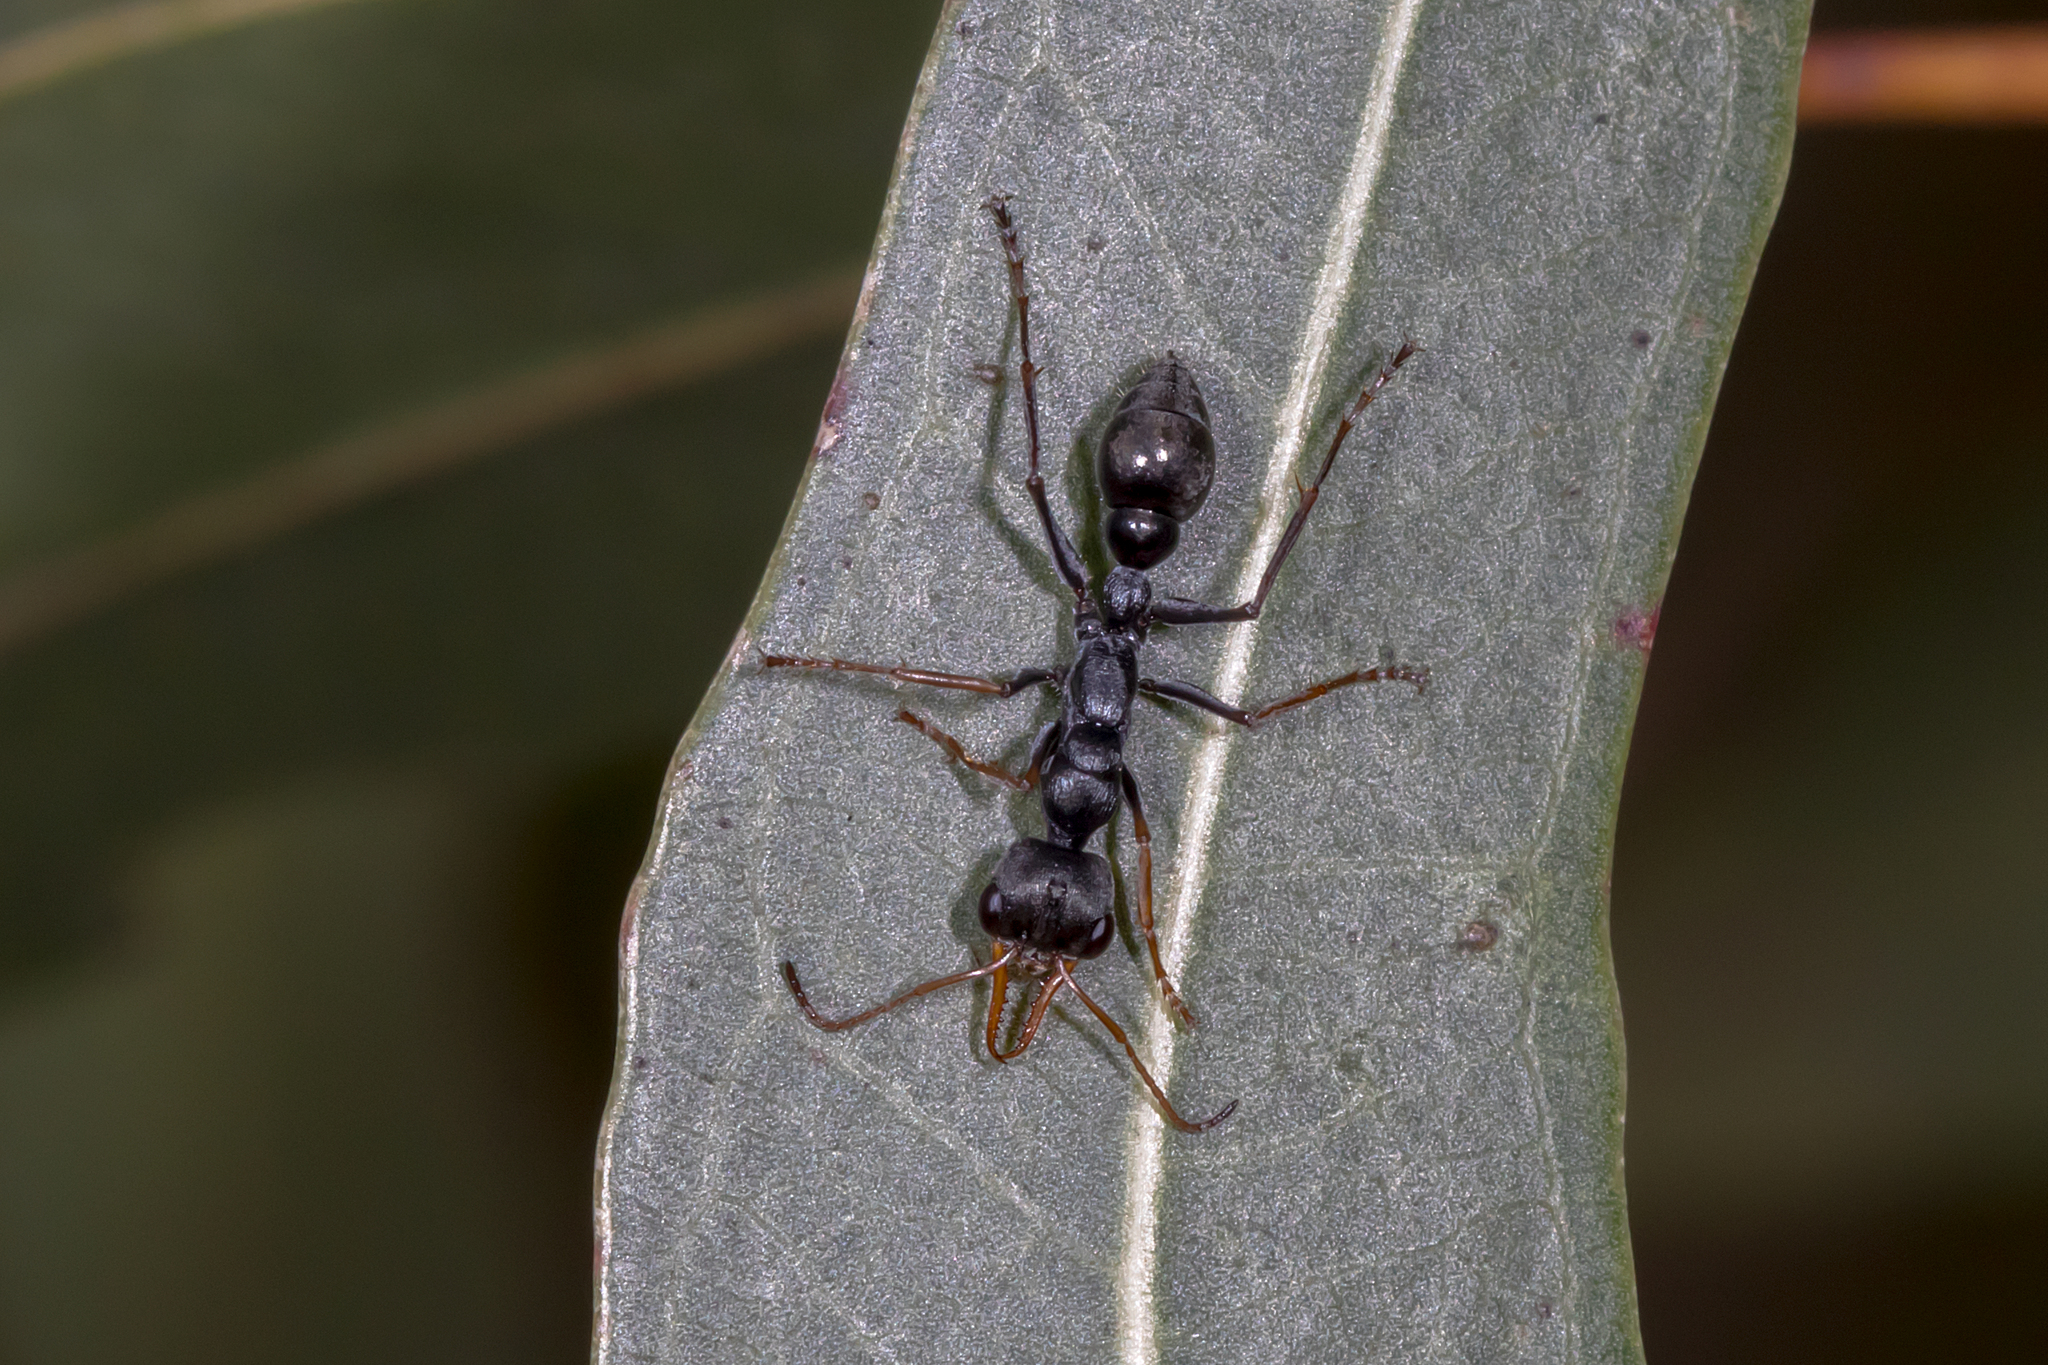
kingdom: Animalia
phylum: Arthropoda
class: Insecta
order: Hymenoptera
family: Formicidae
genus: Myrmecia
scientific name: Myrmecia pilosula
